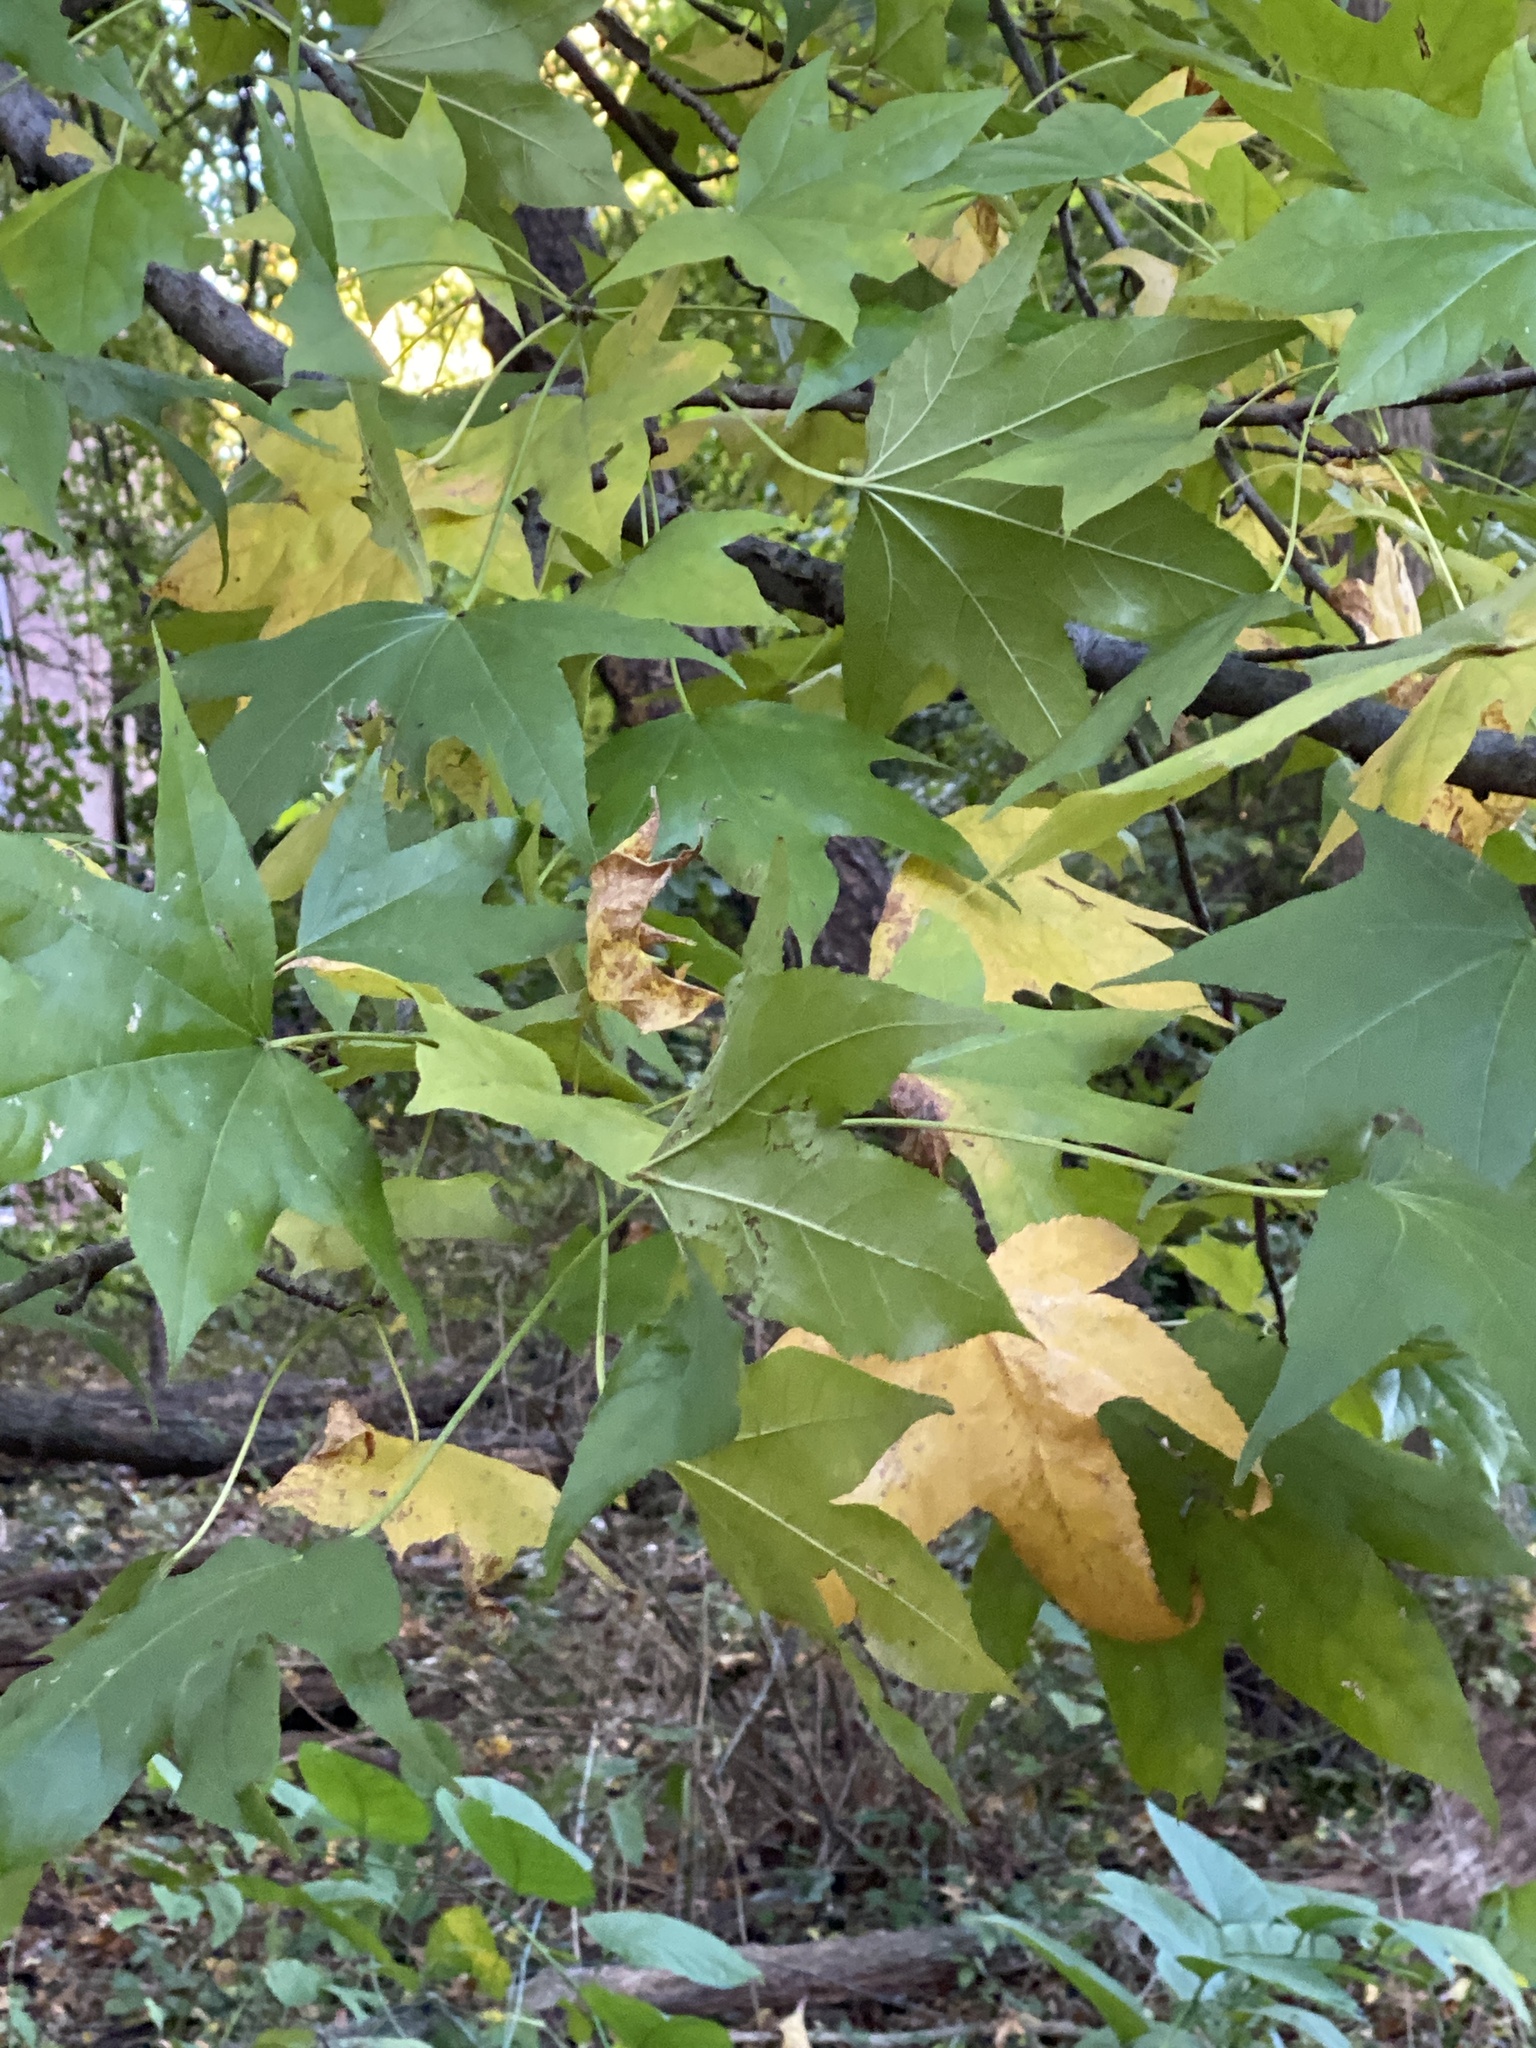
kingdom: Plantae
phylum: Tracheophyta
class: Magnoliopsida
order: Saxifragales
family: Altingiaceae
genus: Liquidambar
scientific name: Liquidambar styraciflua
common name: Sweet gum
